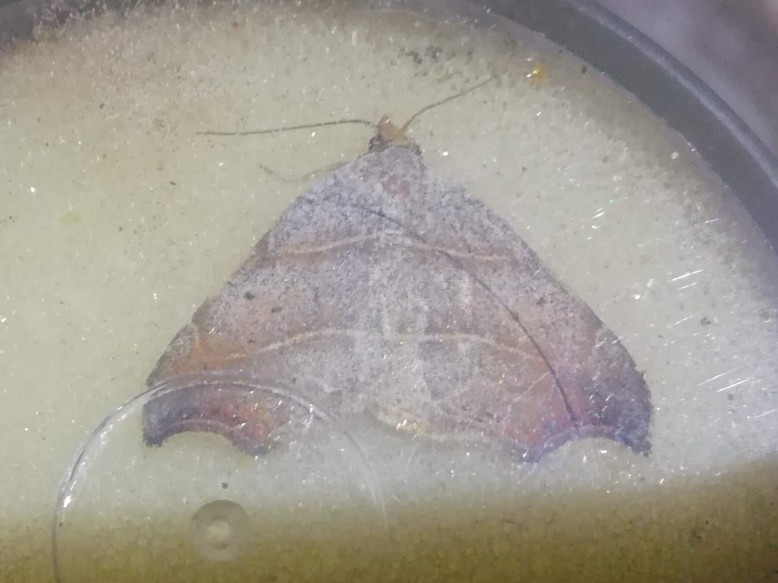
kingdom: Animalia
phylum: Arthropoda
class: Insecta
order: Lepidoptera
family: Erebidae
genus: Laspeyria
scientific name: Laspeyria flexula
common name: Beautiful hook-tip
